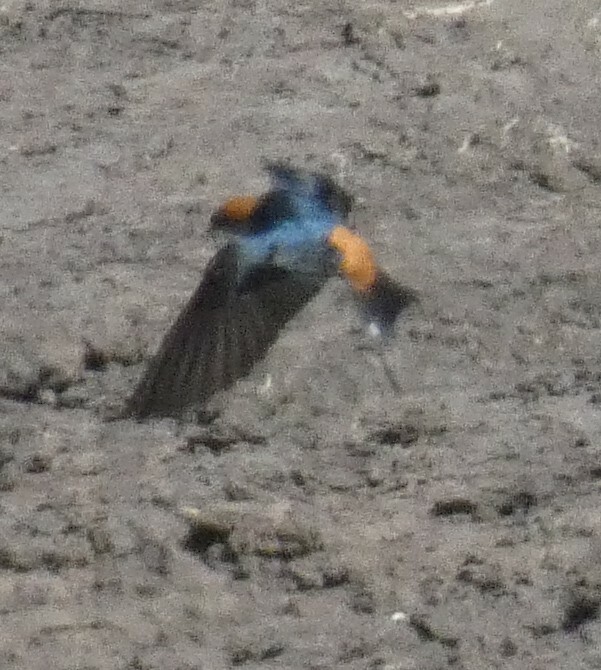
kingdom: Animalia
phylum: Chordata
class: Aves
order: Passeriformes
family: Hirundinidae
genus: Cecropis
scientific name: Cecropis abyssinica
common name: Lesser striped-swallow
